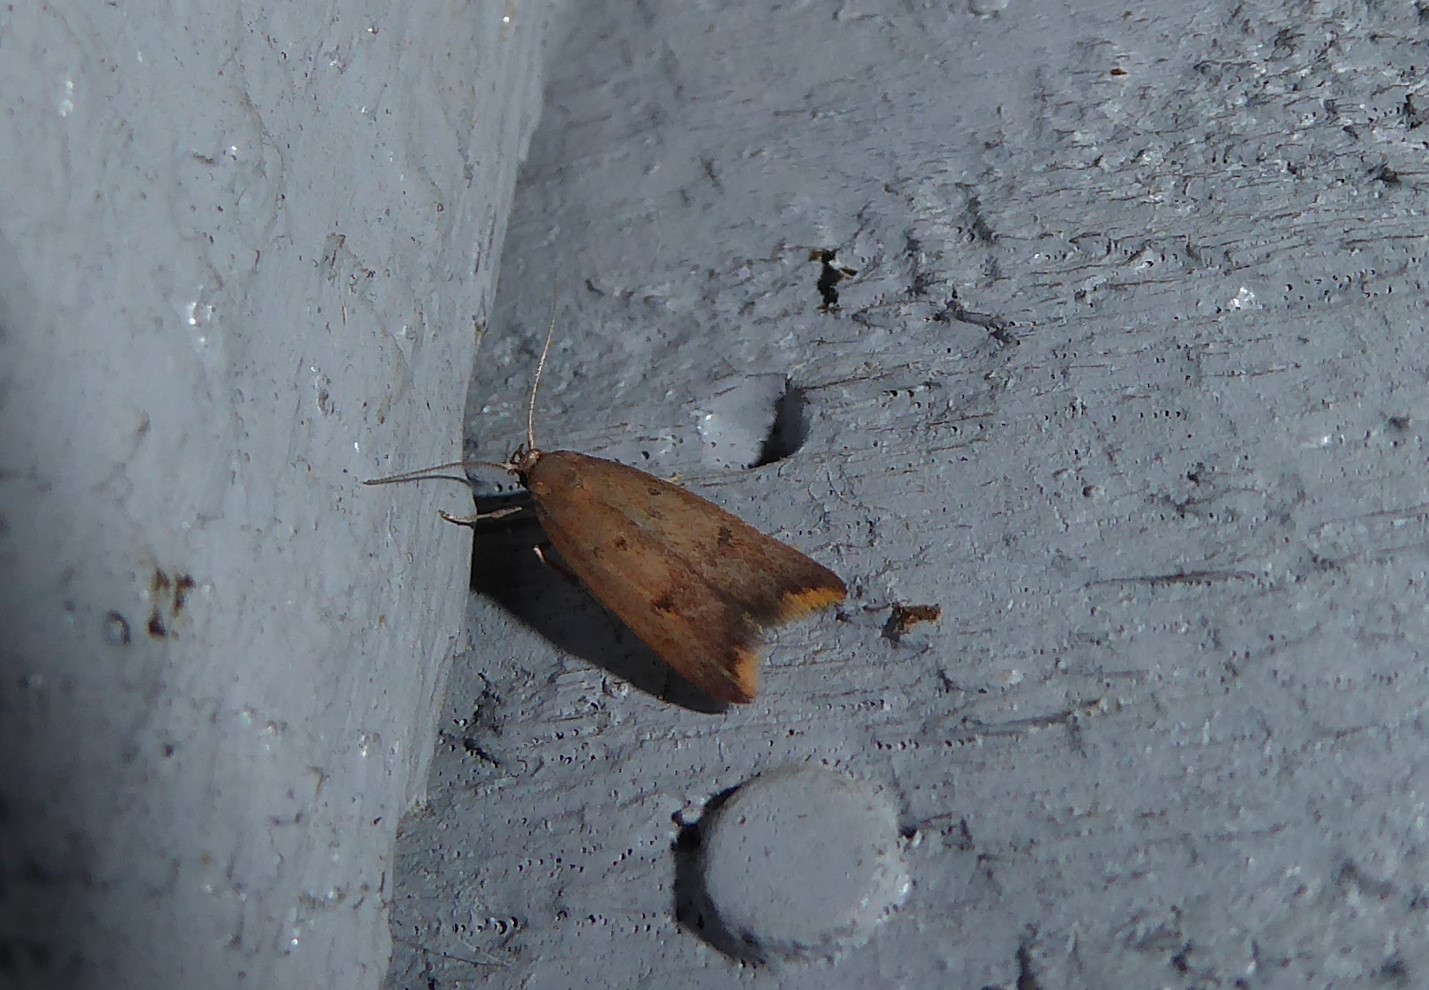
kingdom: Animalia
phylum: Arthropoda
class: Insecta
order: Lepidoptera
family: Oecophoridae
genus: Tachystola
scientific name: Tachystola acroxantha
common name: Ruddy streak
